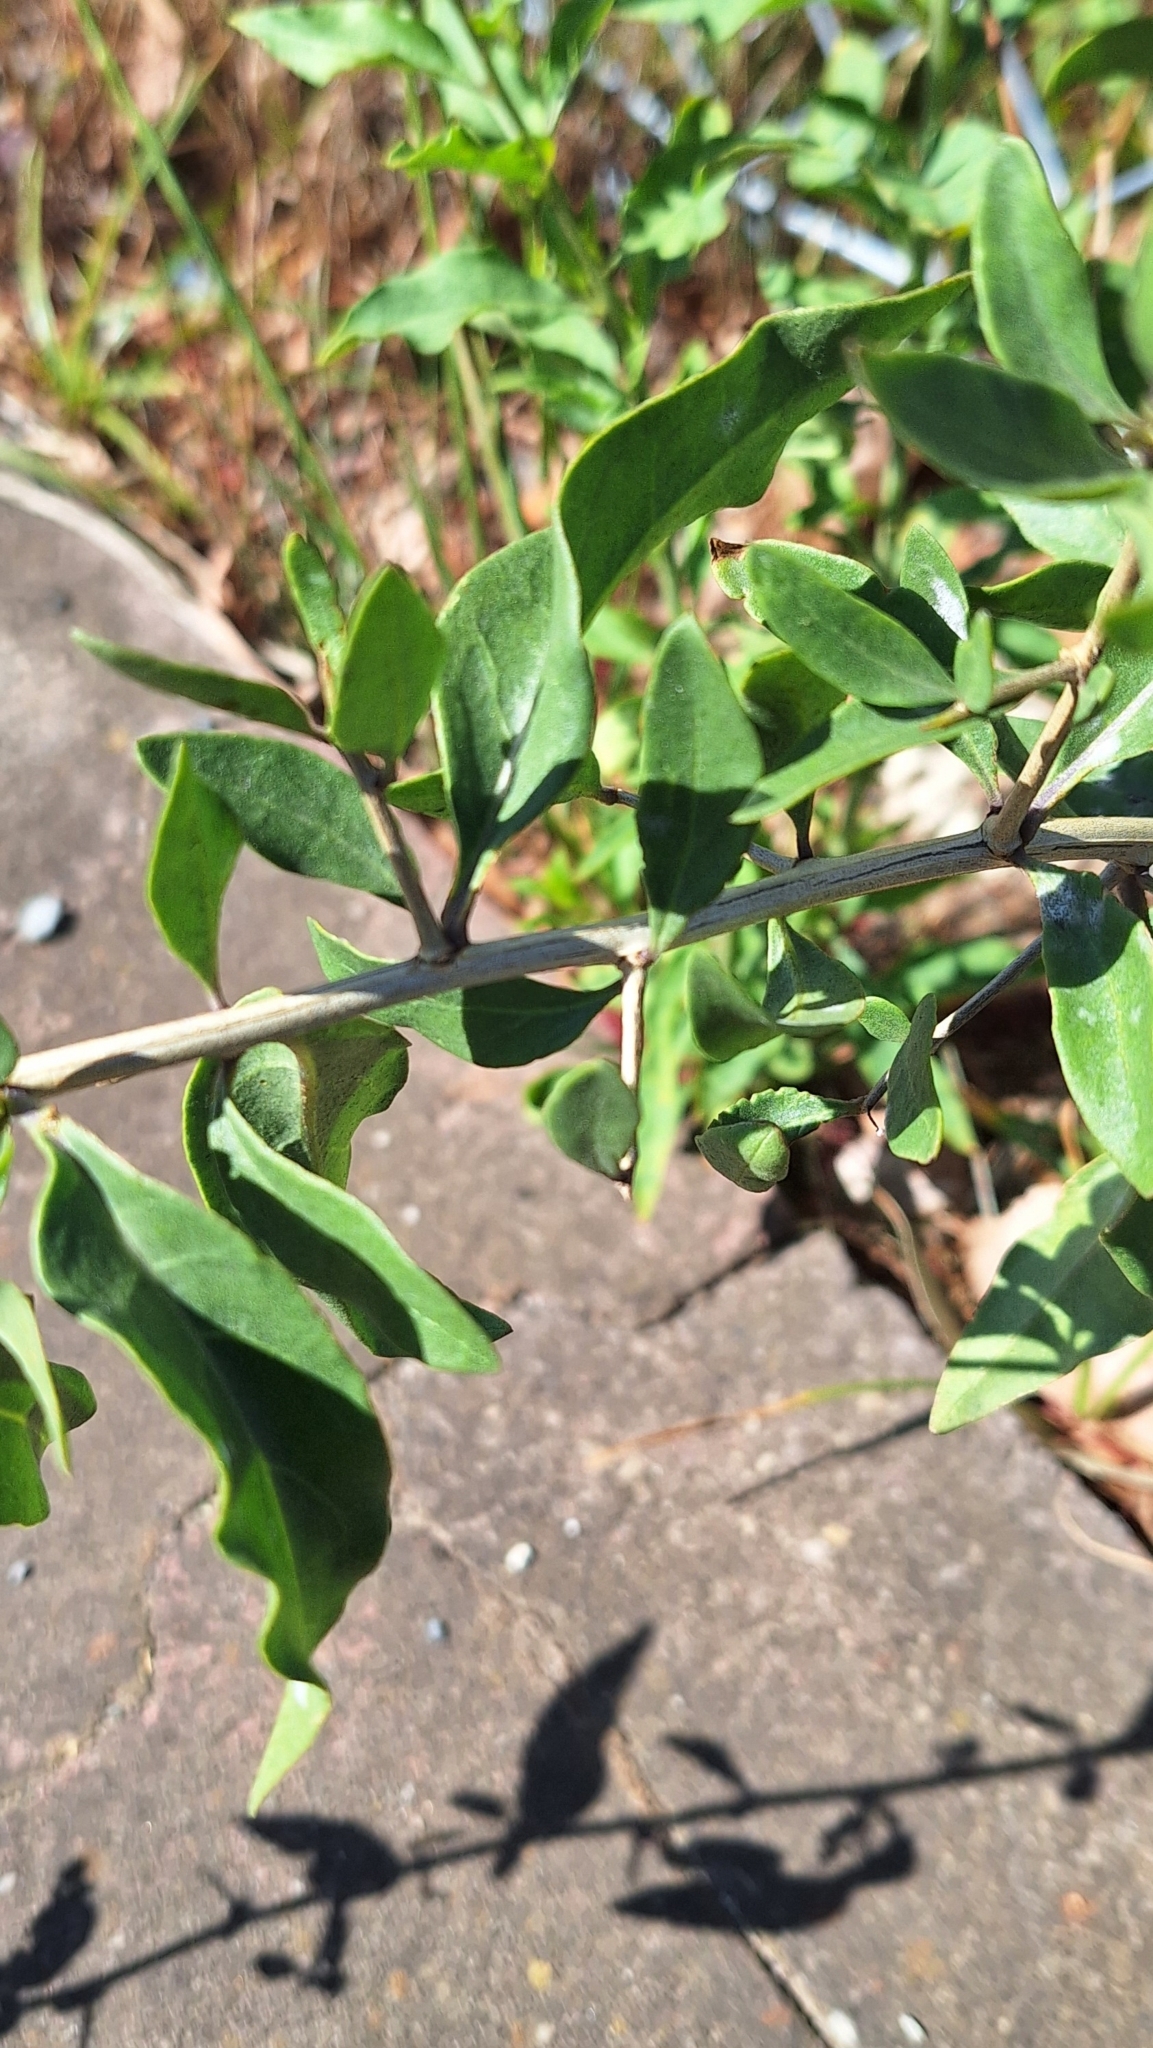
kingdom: Plantae
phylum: Tracheophyta
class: Magnoliopsida
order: Solanales
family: Solanaceae
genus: Lycium
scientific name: Lycium barbarum
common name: Duke of argyll's teaplant
